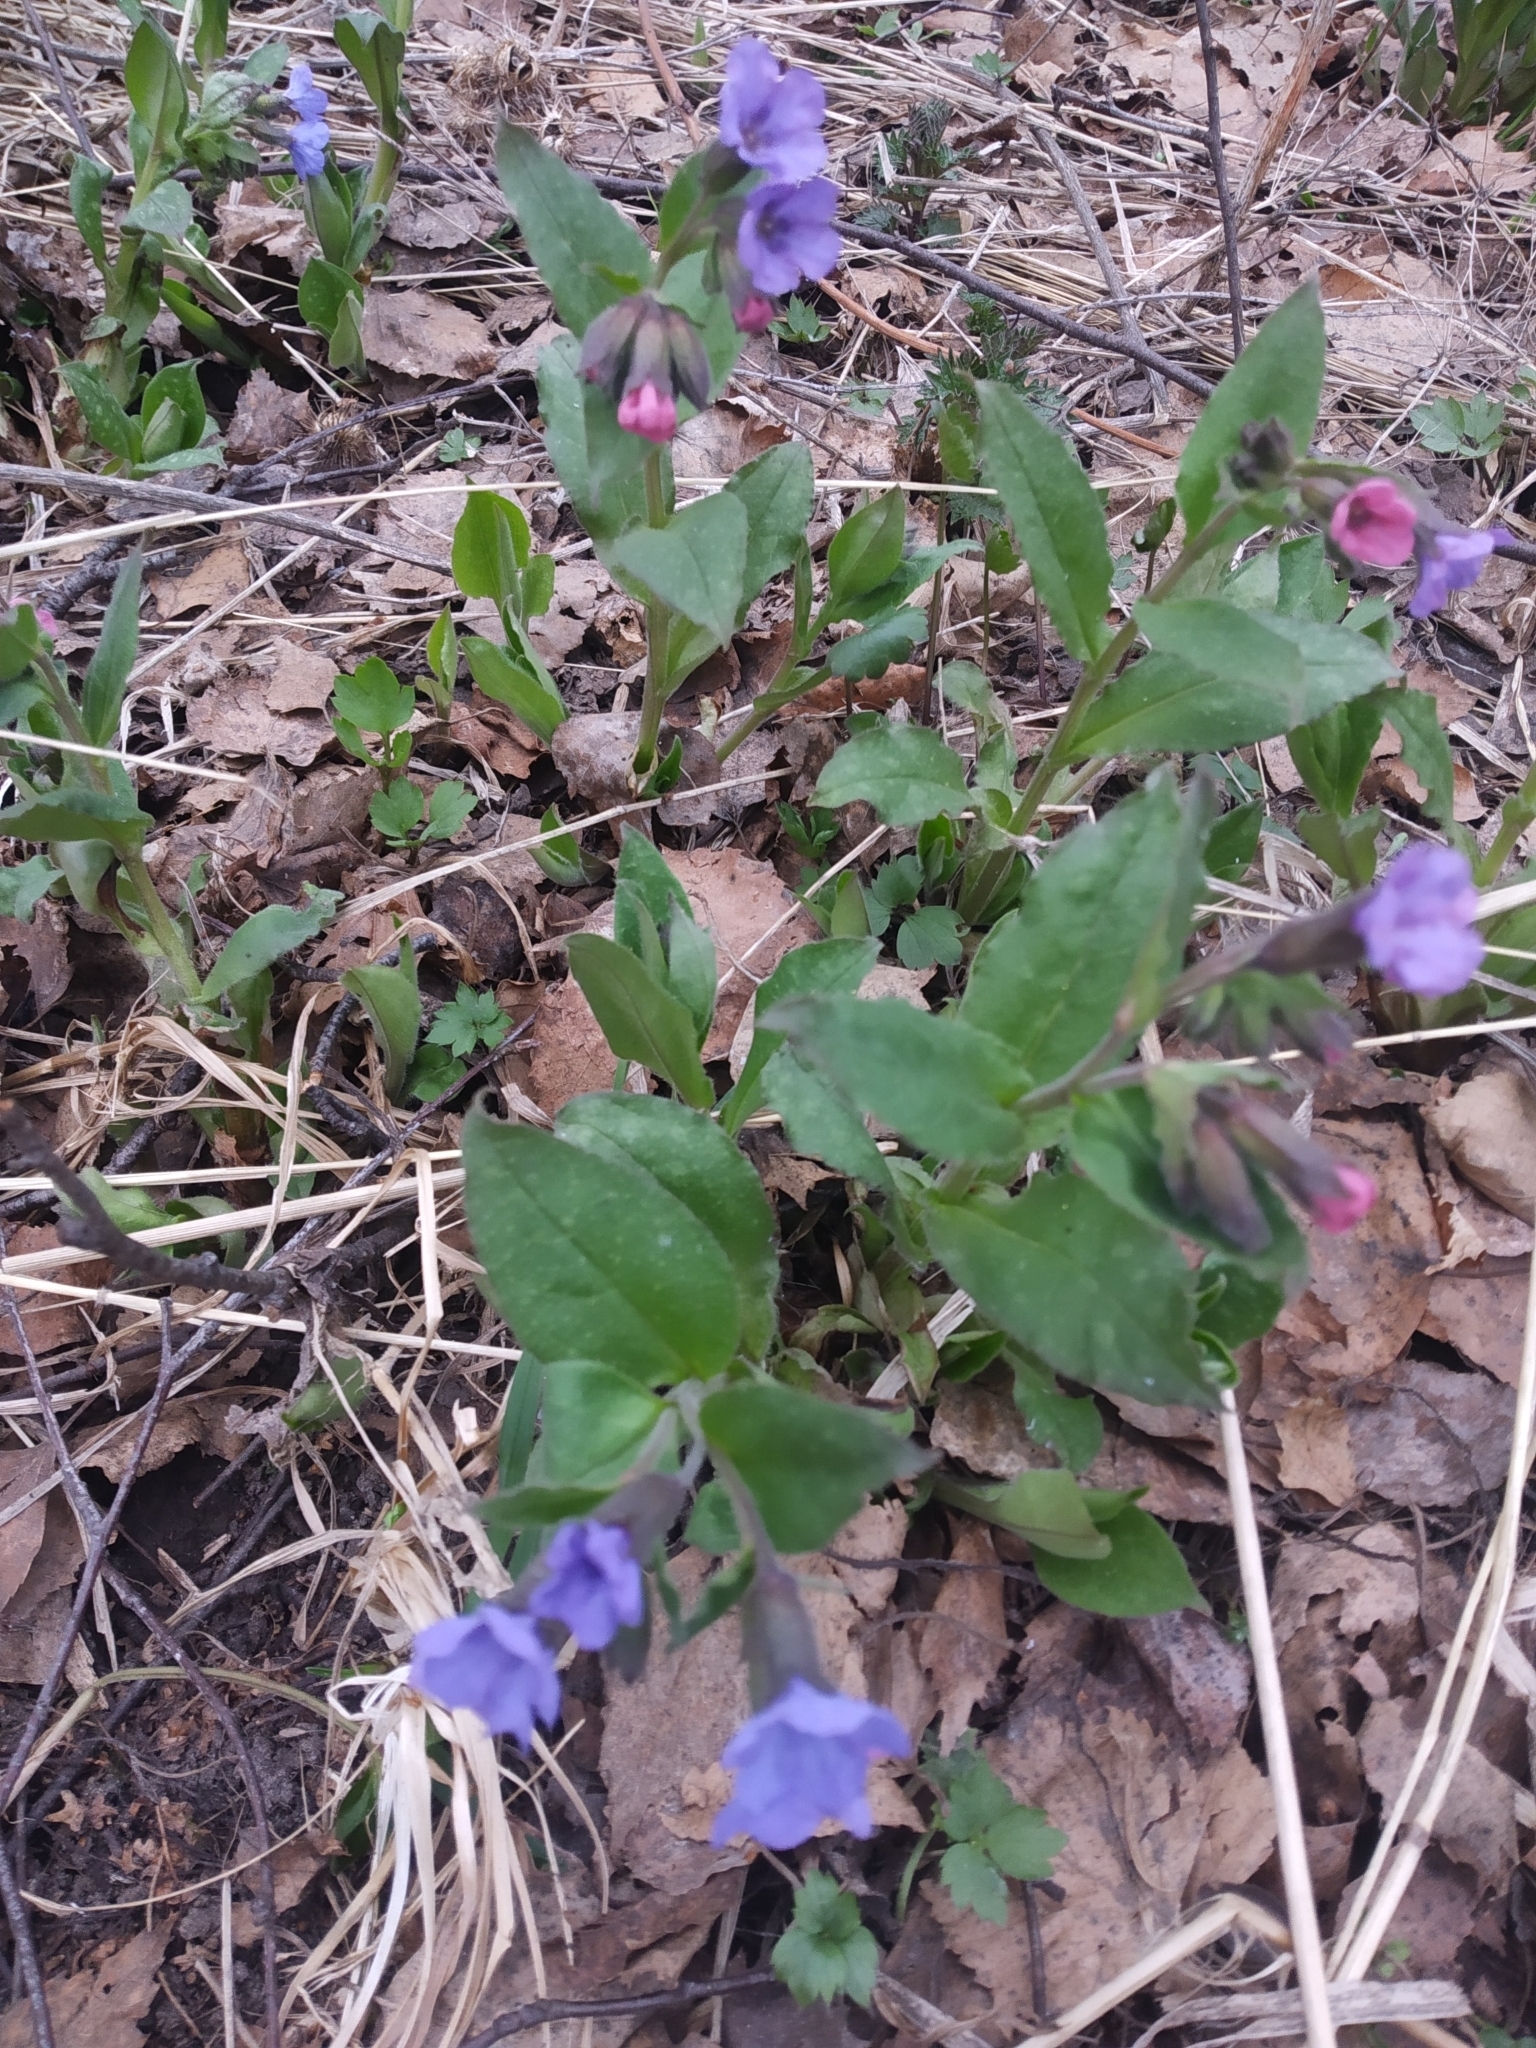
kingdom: Plantae
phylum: Tracheophyta
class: Magnoliopsida
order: Boraginales
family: Boraginaceae
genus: Pulmonaria
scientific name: Pulmonaria obscura
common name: Suffolk lungwort
